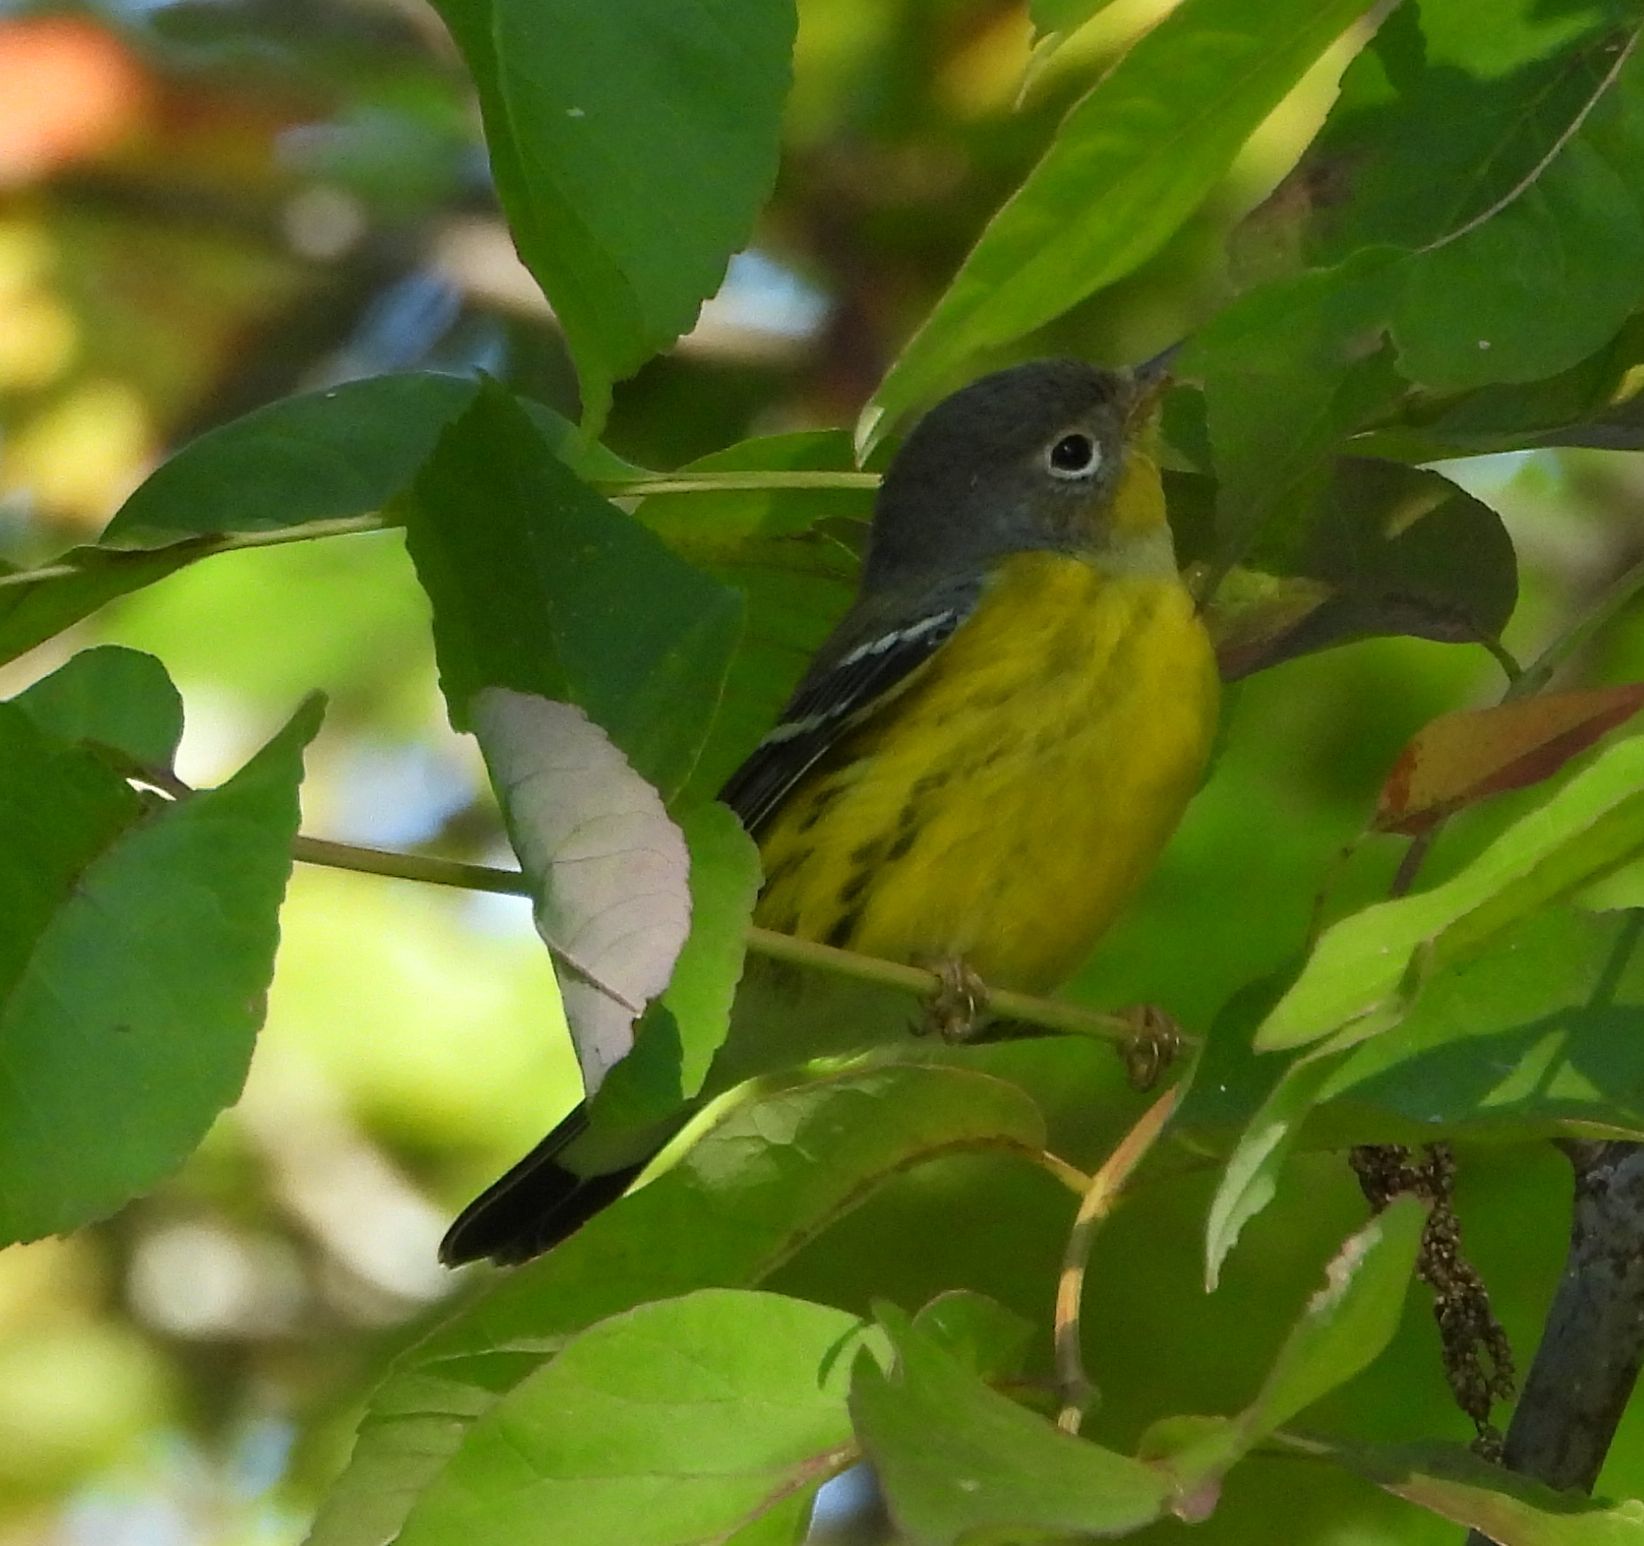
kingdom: Animalia
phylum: Chordata
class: Aves
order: Passeriformes
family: Parulidae
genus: Setophaga
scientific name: Setophaga magnolia
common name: Magnolia warbler
